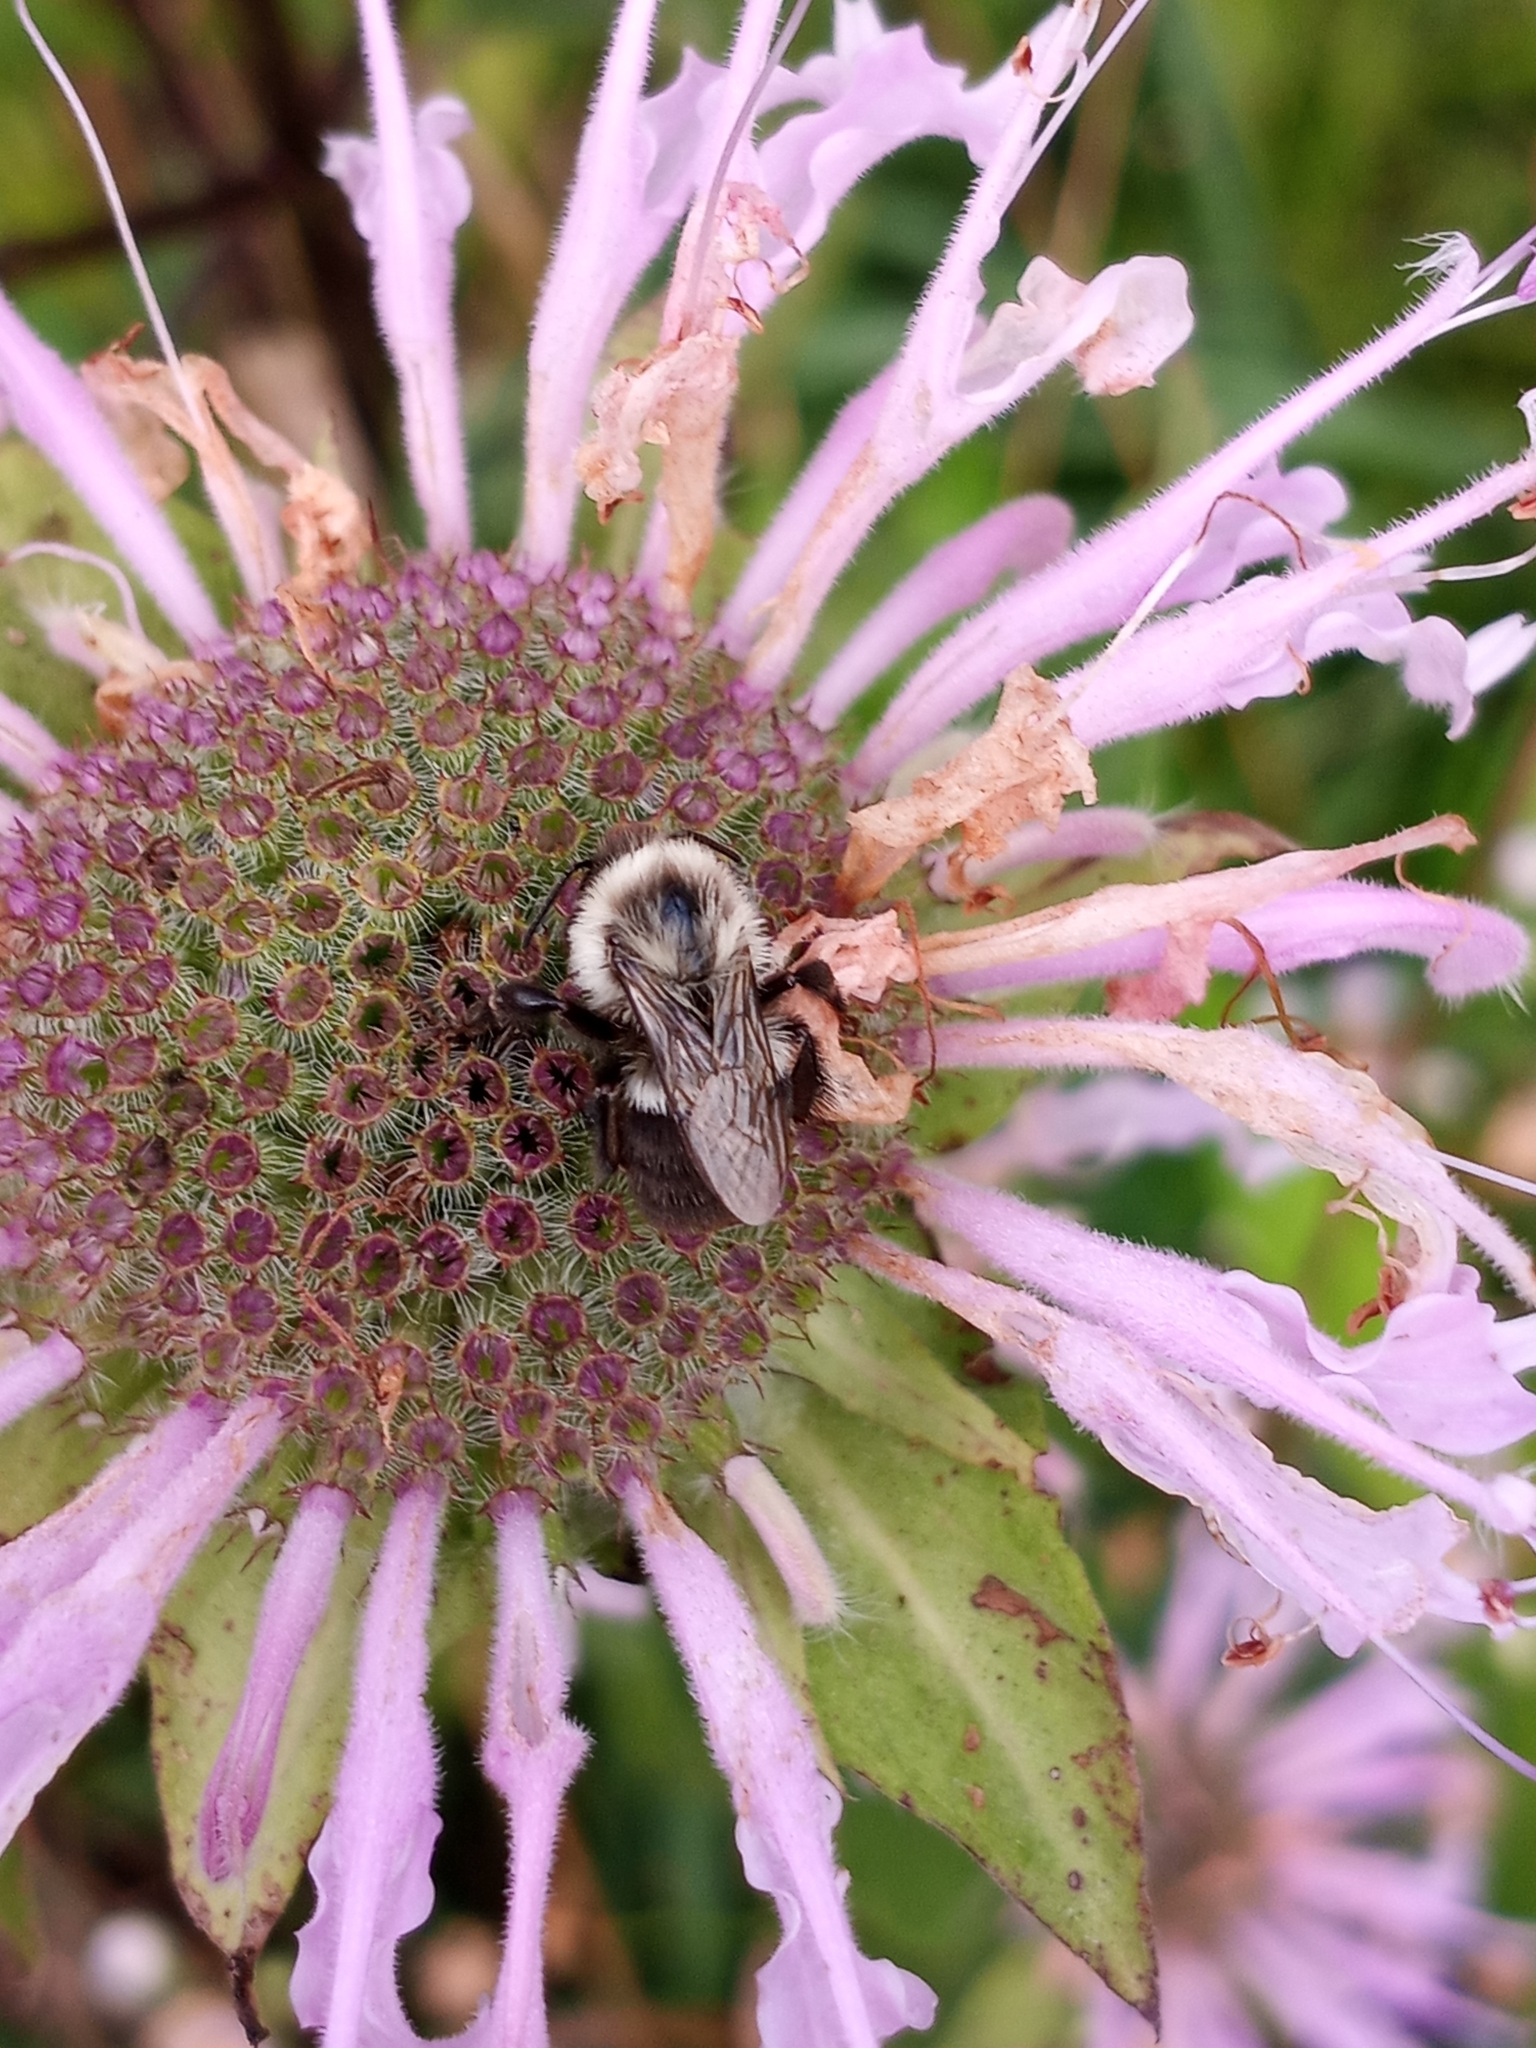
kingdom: Animalia
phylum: Arthropoda
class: Insecta
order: Hymenoptera
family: Apidae
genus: Bombus
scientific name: Bombus impatiens
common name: Common eastern bumble bee
